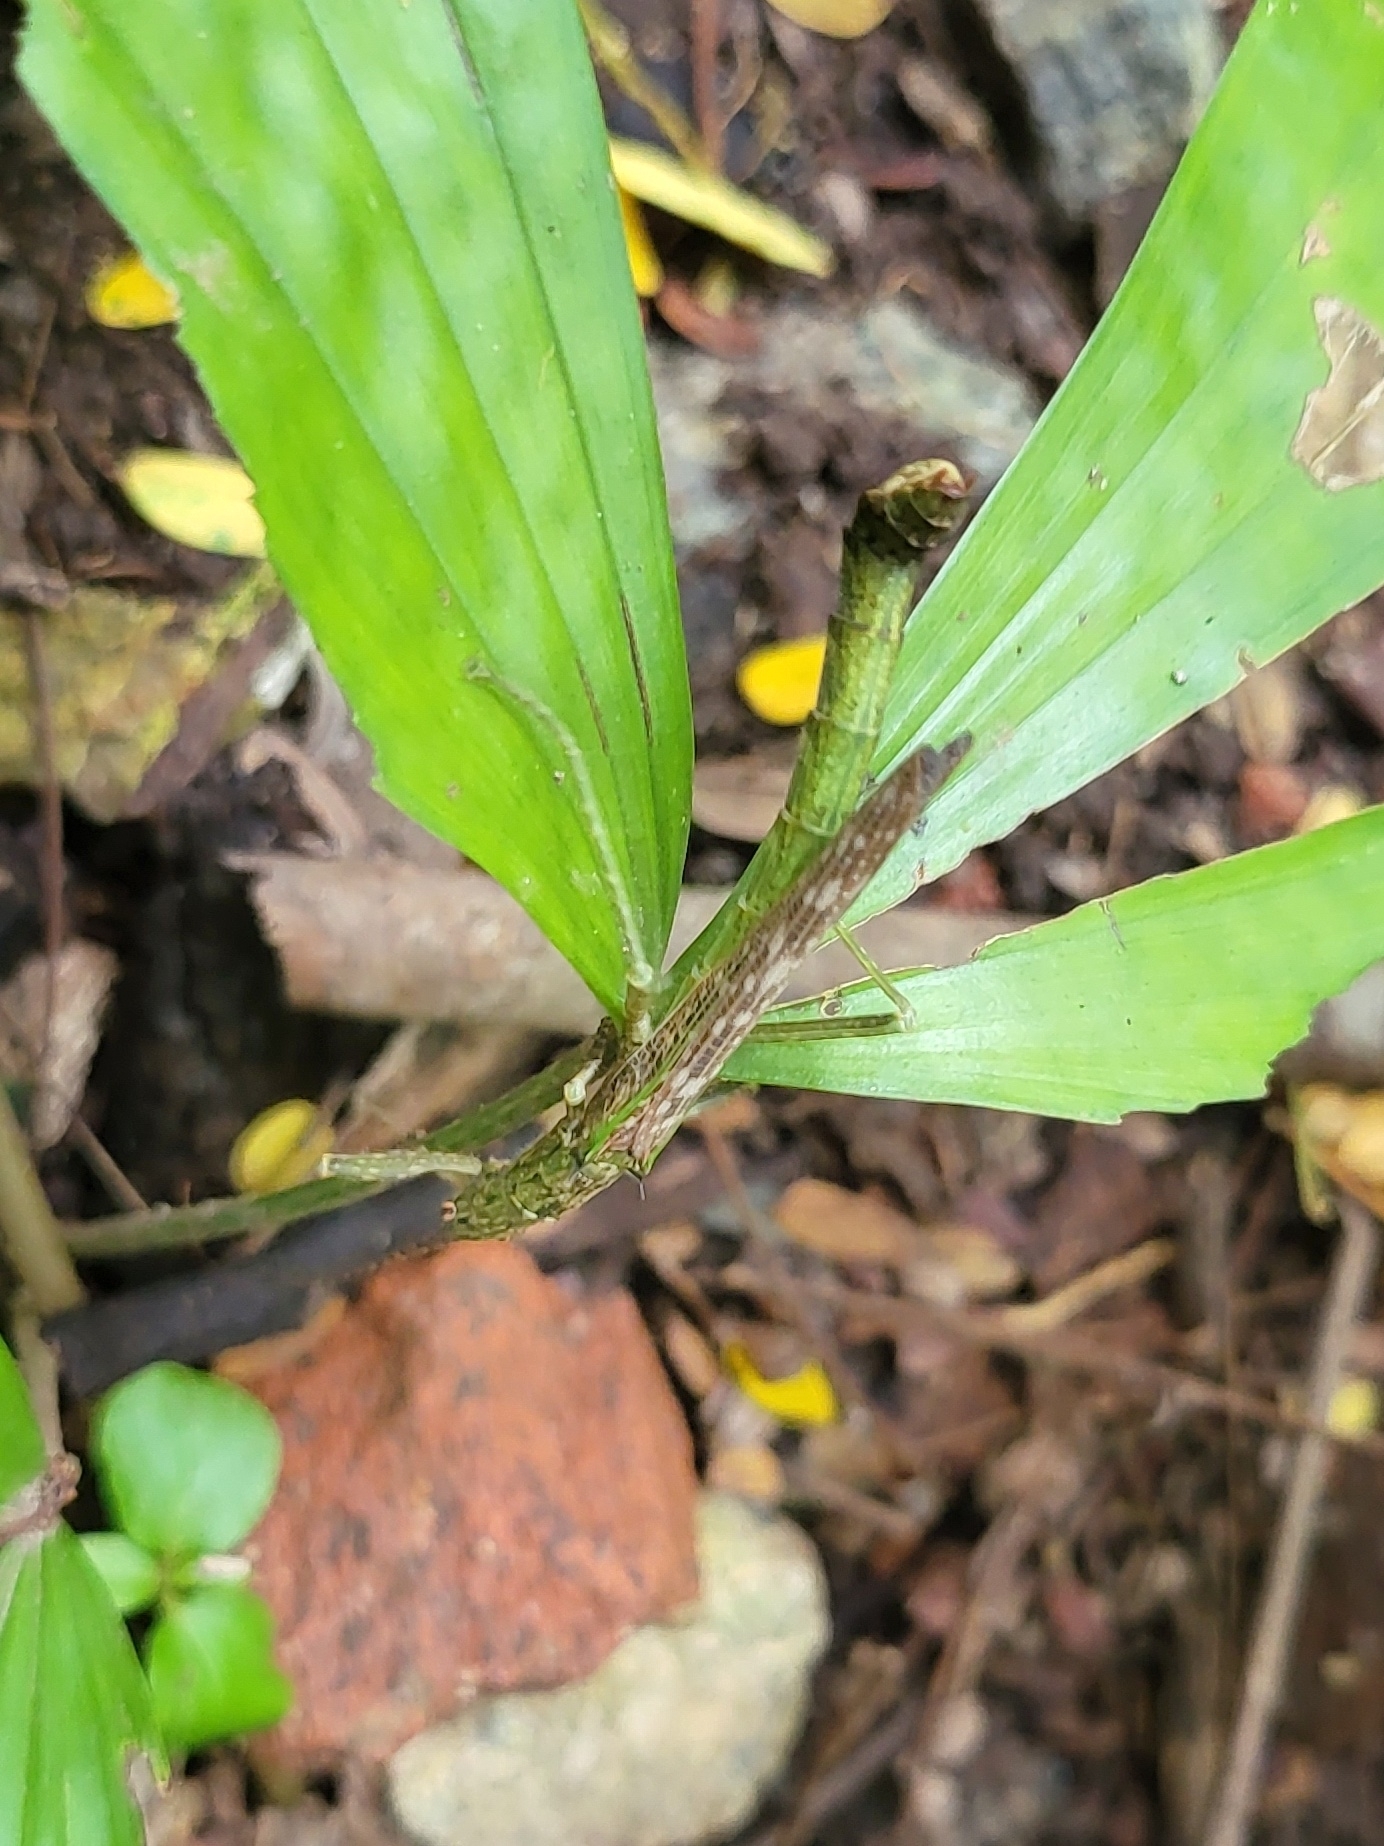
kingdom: Animalia
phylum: Arthropoda
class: Insecta
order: Phasmida
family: Aschiphasmatidae
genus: Presbistus
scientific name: Presbistus peleus
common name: Green striped flying stick
